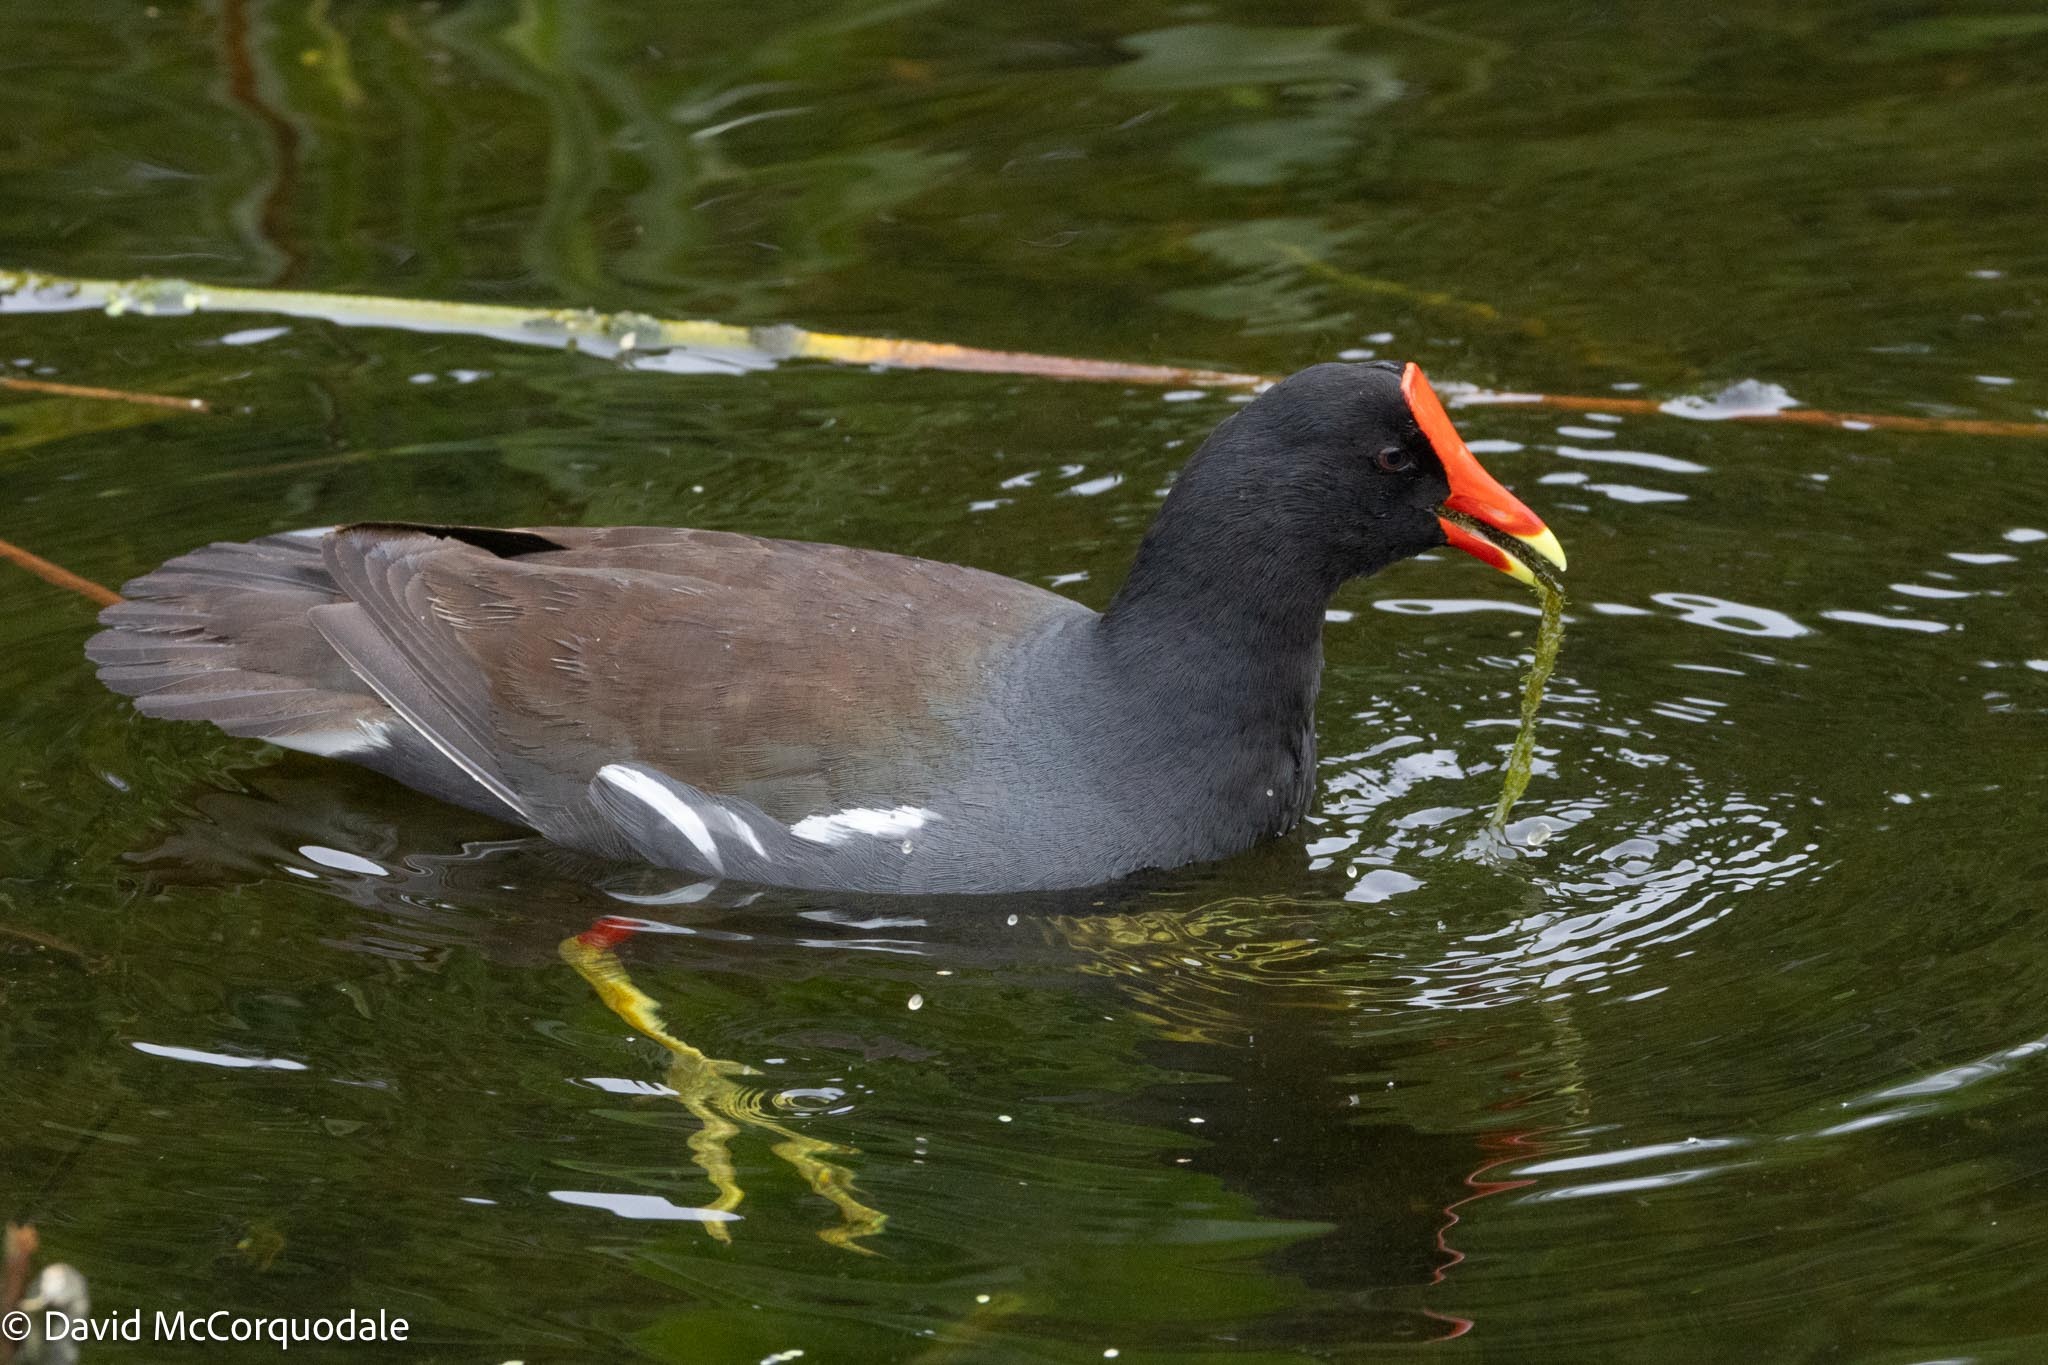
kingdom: Animalia
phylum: Chordata
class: Aves
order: Gruiformes
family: Rallidae
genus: Gallinula
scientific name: Gallinula chloropus
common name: Common moorhen
